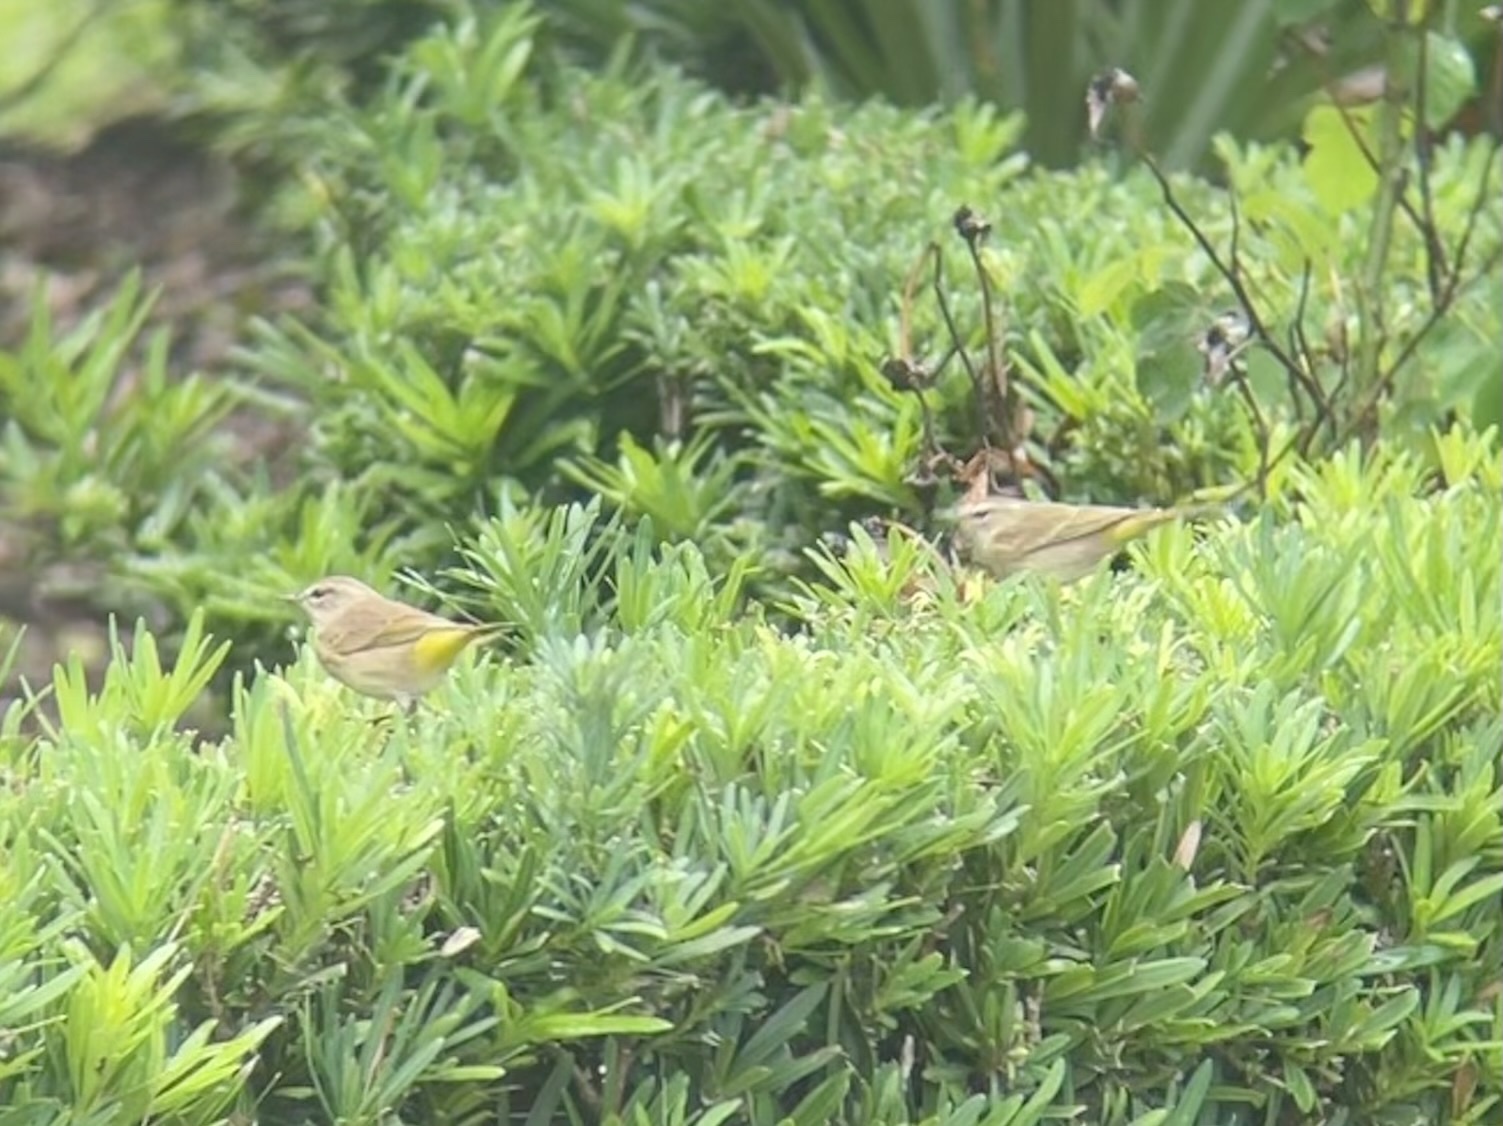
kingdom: Animalia
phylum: Chordata
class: Aves
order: Passeriformes
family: Parulidae
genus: Setophaga
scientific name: Setophaga palmarum
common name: Palm warbler
